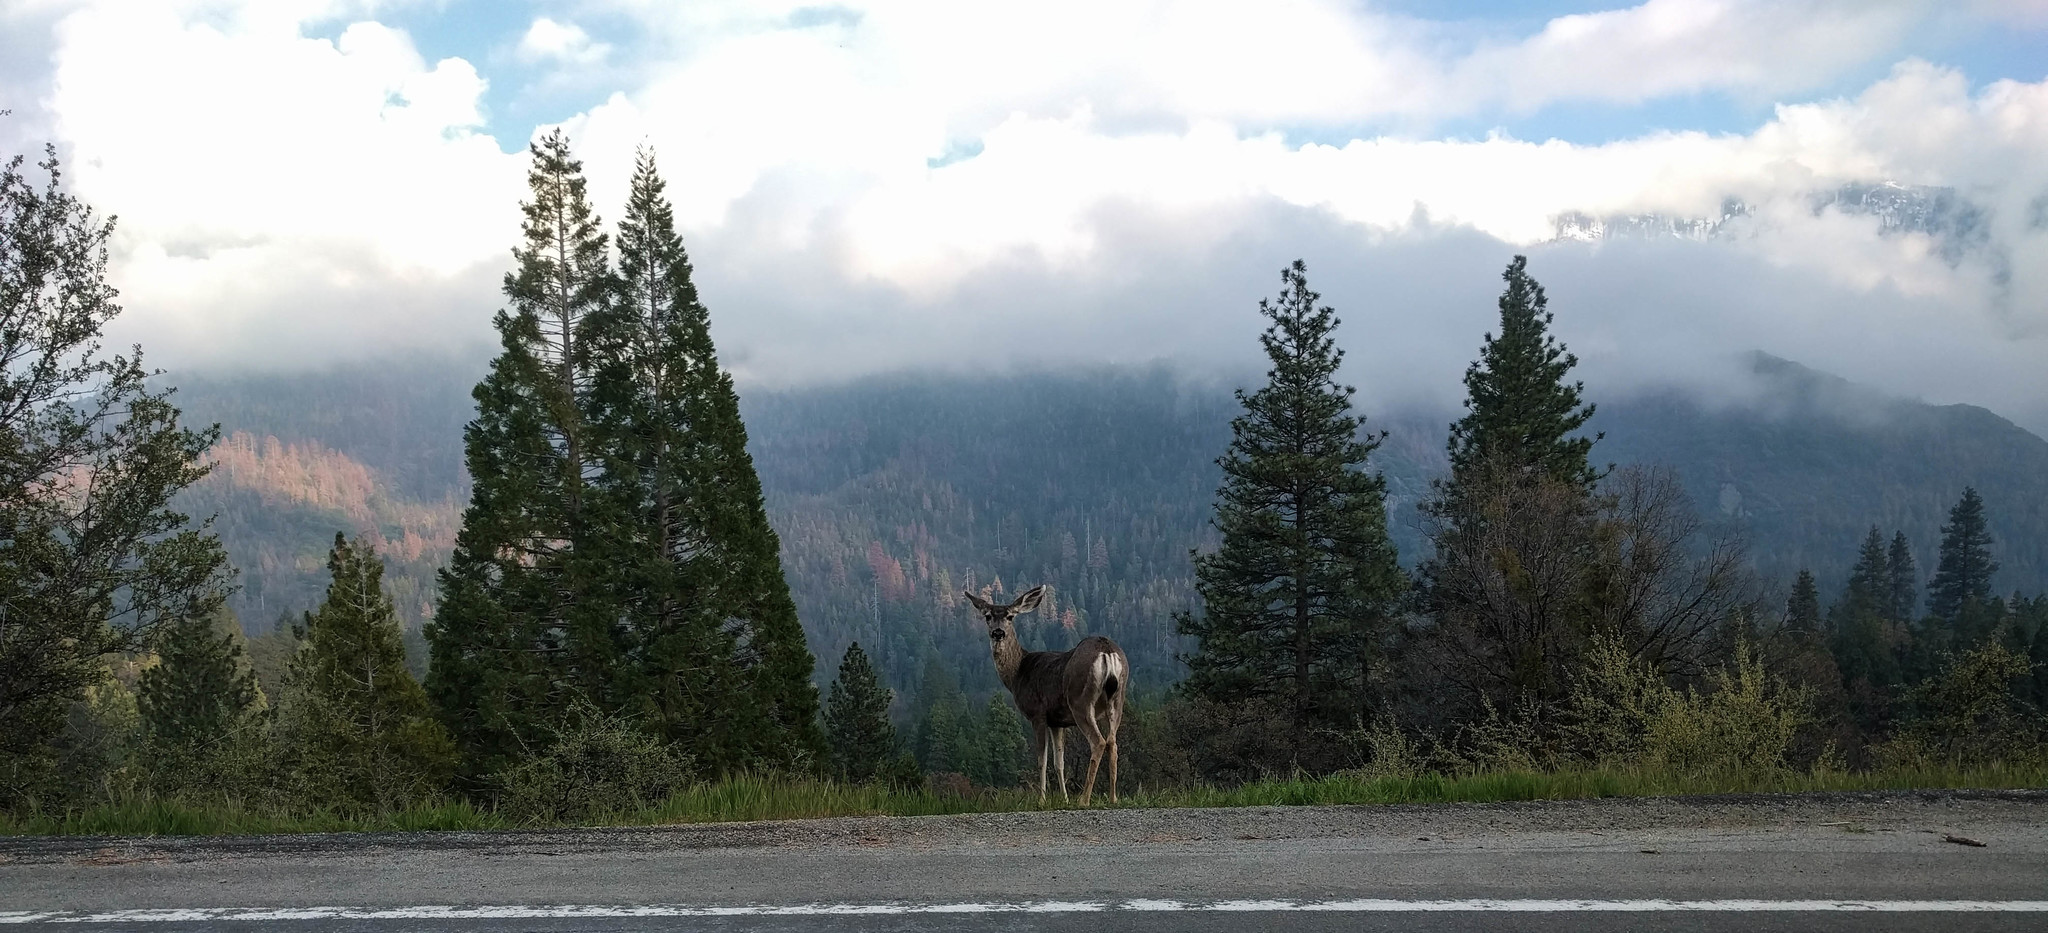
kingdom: Animalia
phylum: Chordata
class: Mammalia
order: Artiodactyla
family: Cervidae
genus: Odocoileus
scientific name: Odocoileus hemionus
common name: Mule deer
